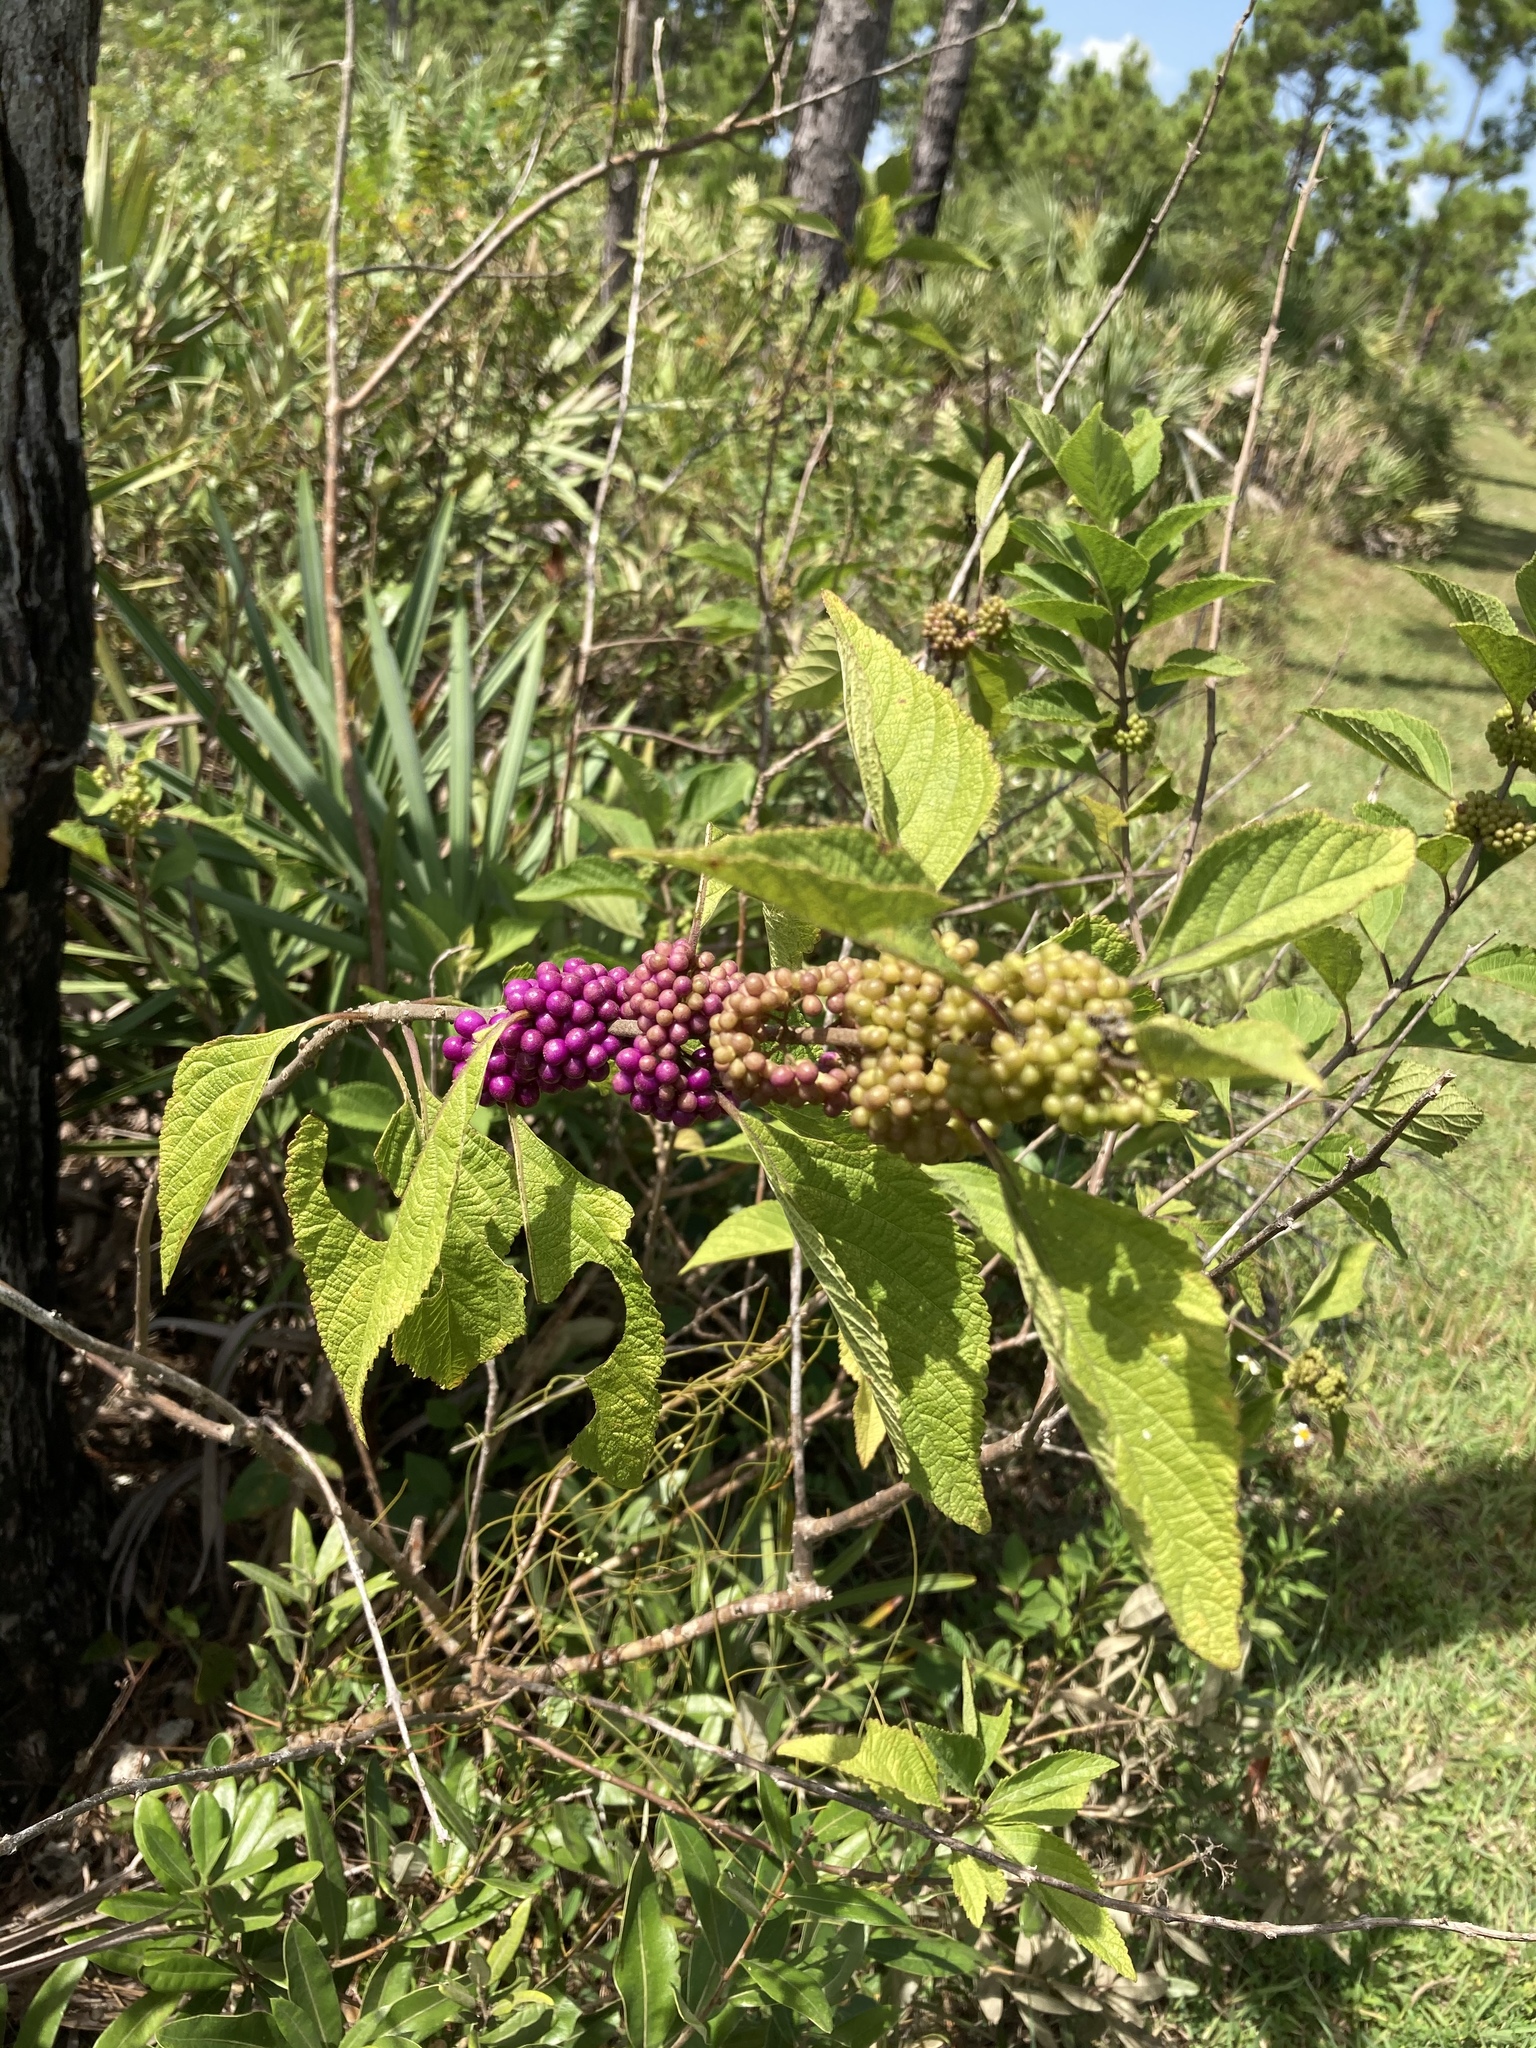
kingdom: Plantae
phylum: Tracheophyta
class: Magnoliopsida
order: Lamiales
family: Lamiaceae
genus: Callicarpa
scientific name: Callicarpa americana
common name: American beautyberry
